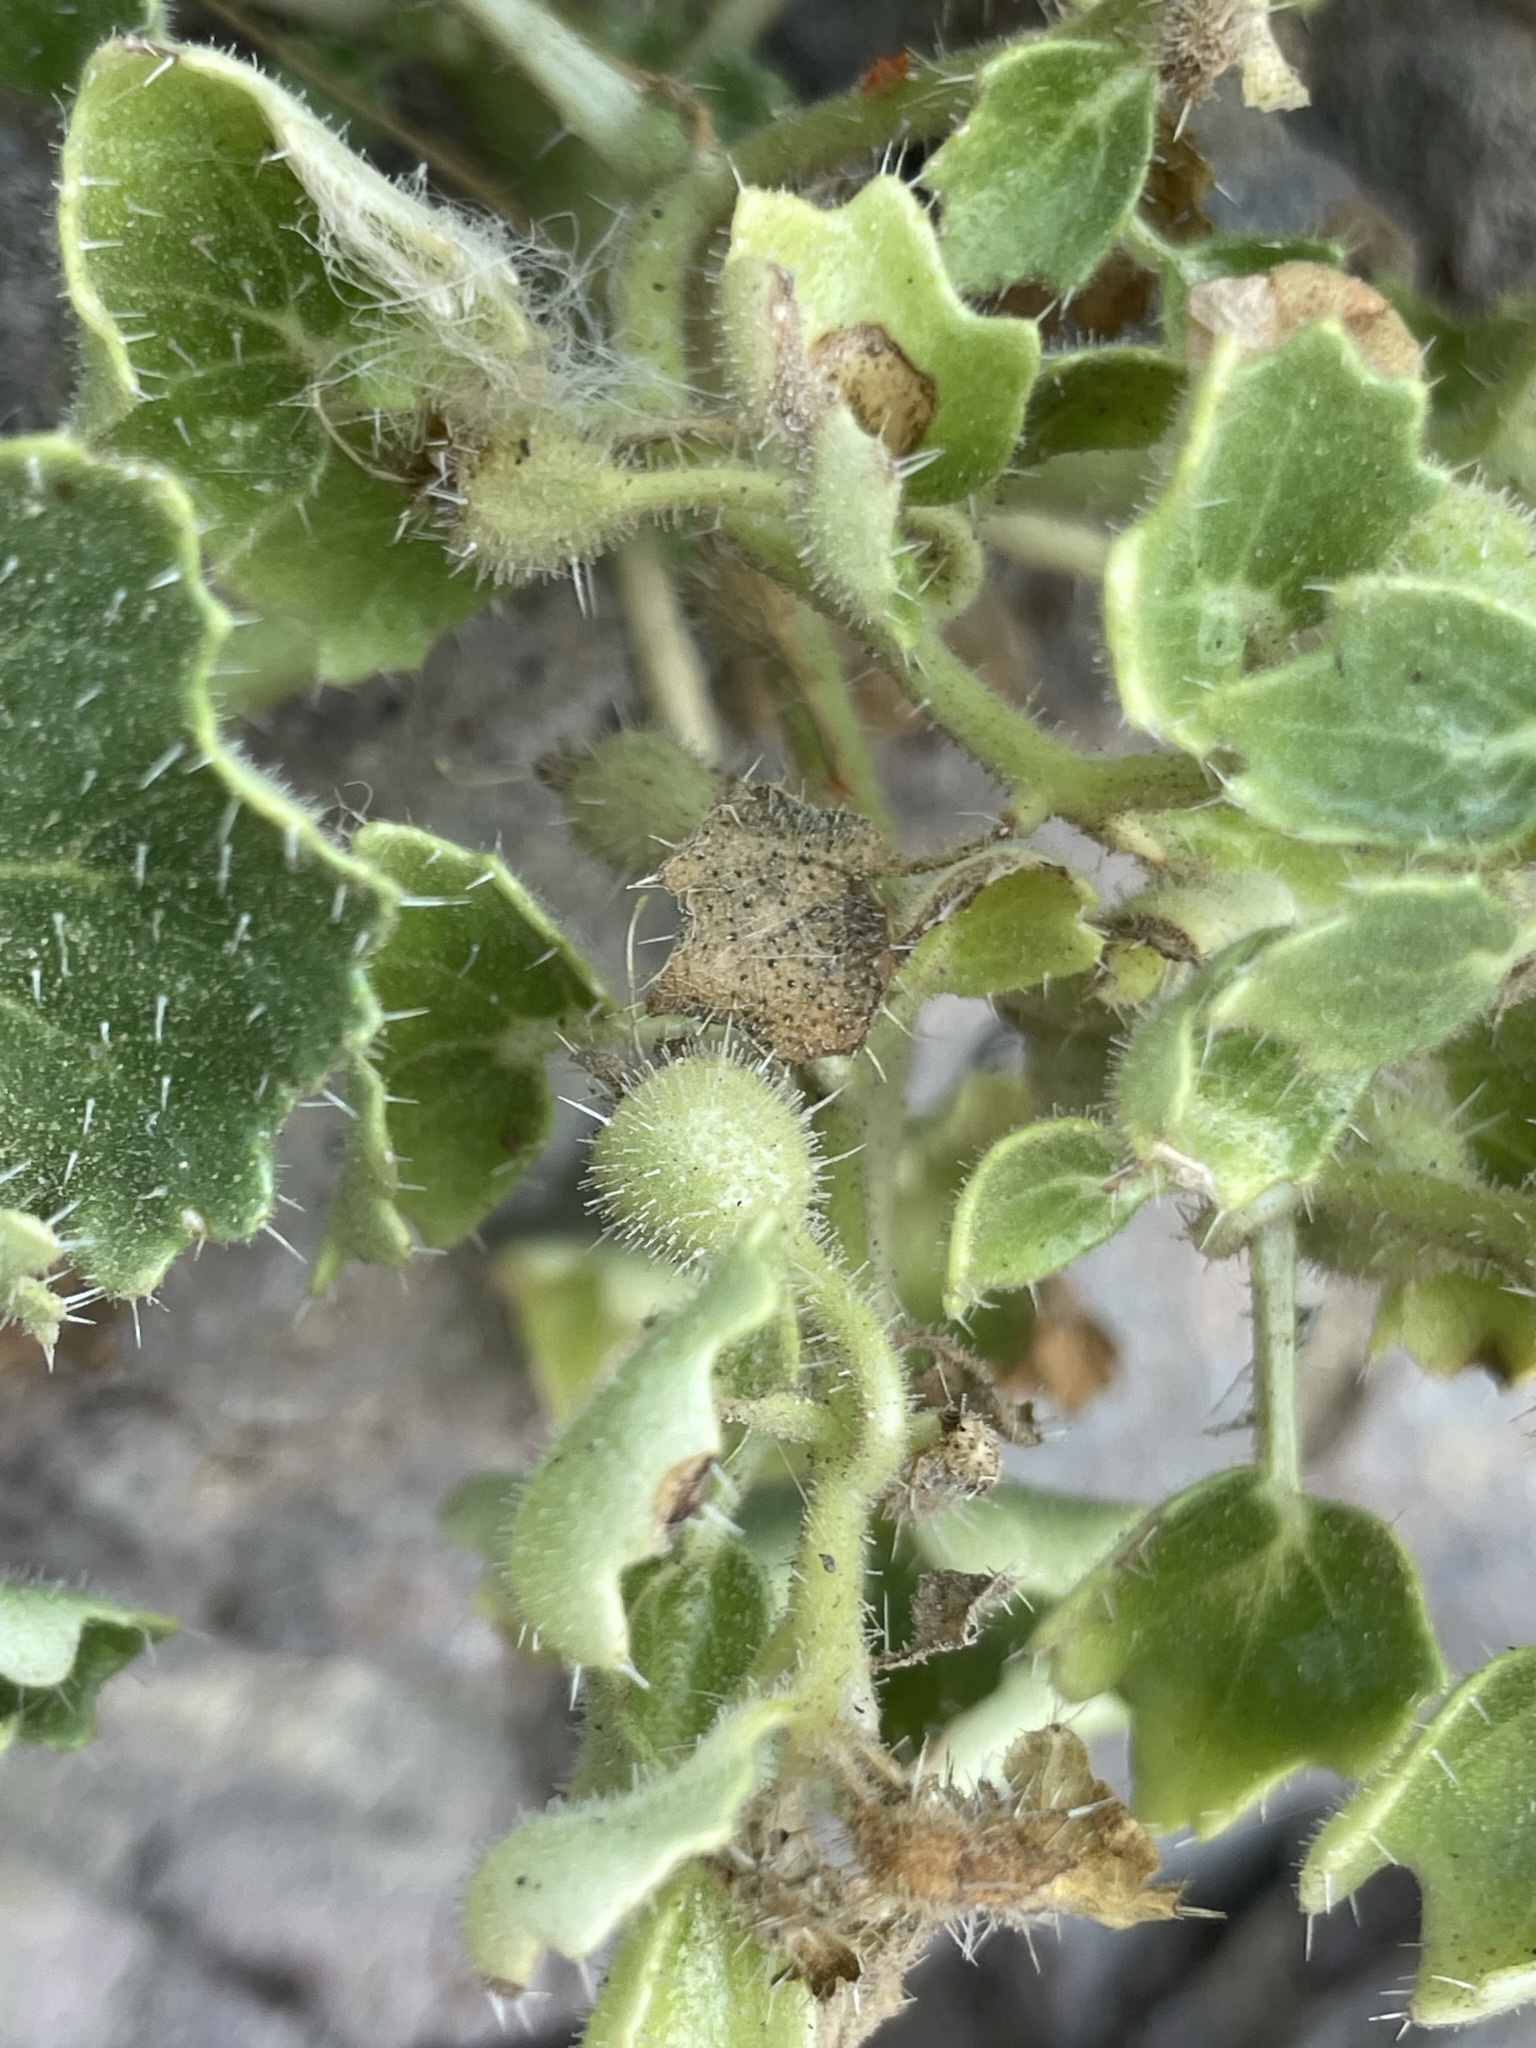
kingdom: Plantae
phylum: Tracheophyta
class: Magnoliopsida
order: Cornales
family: Loasaceae
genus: Eucnide
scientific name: Eucnide aurea
